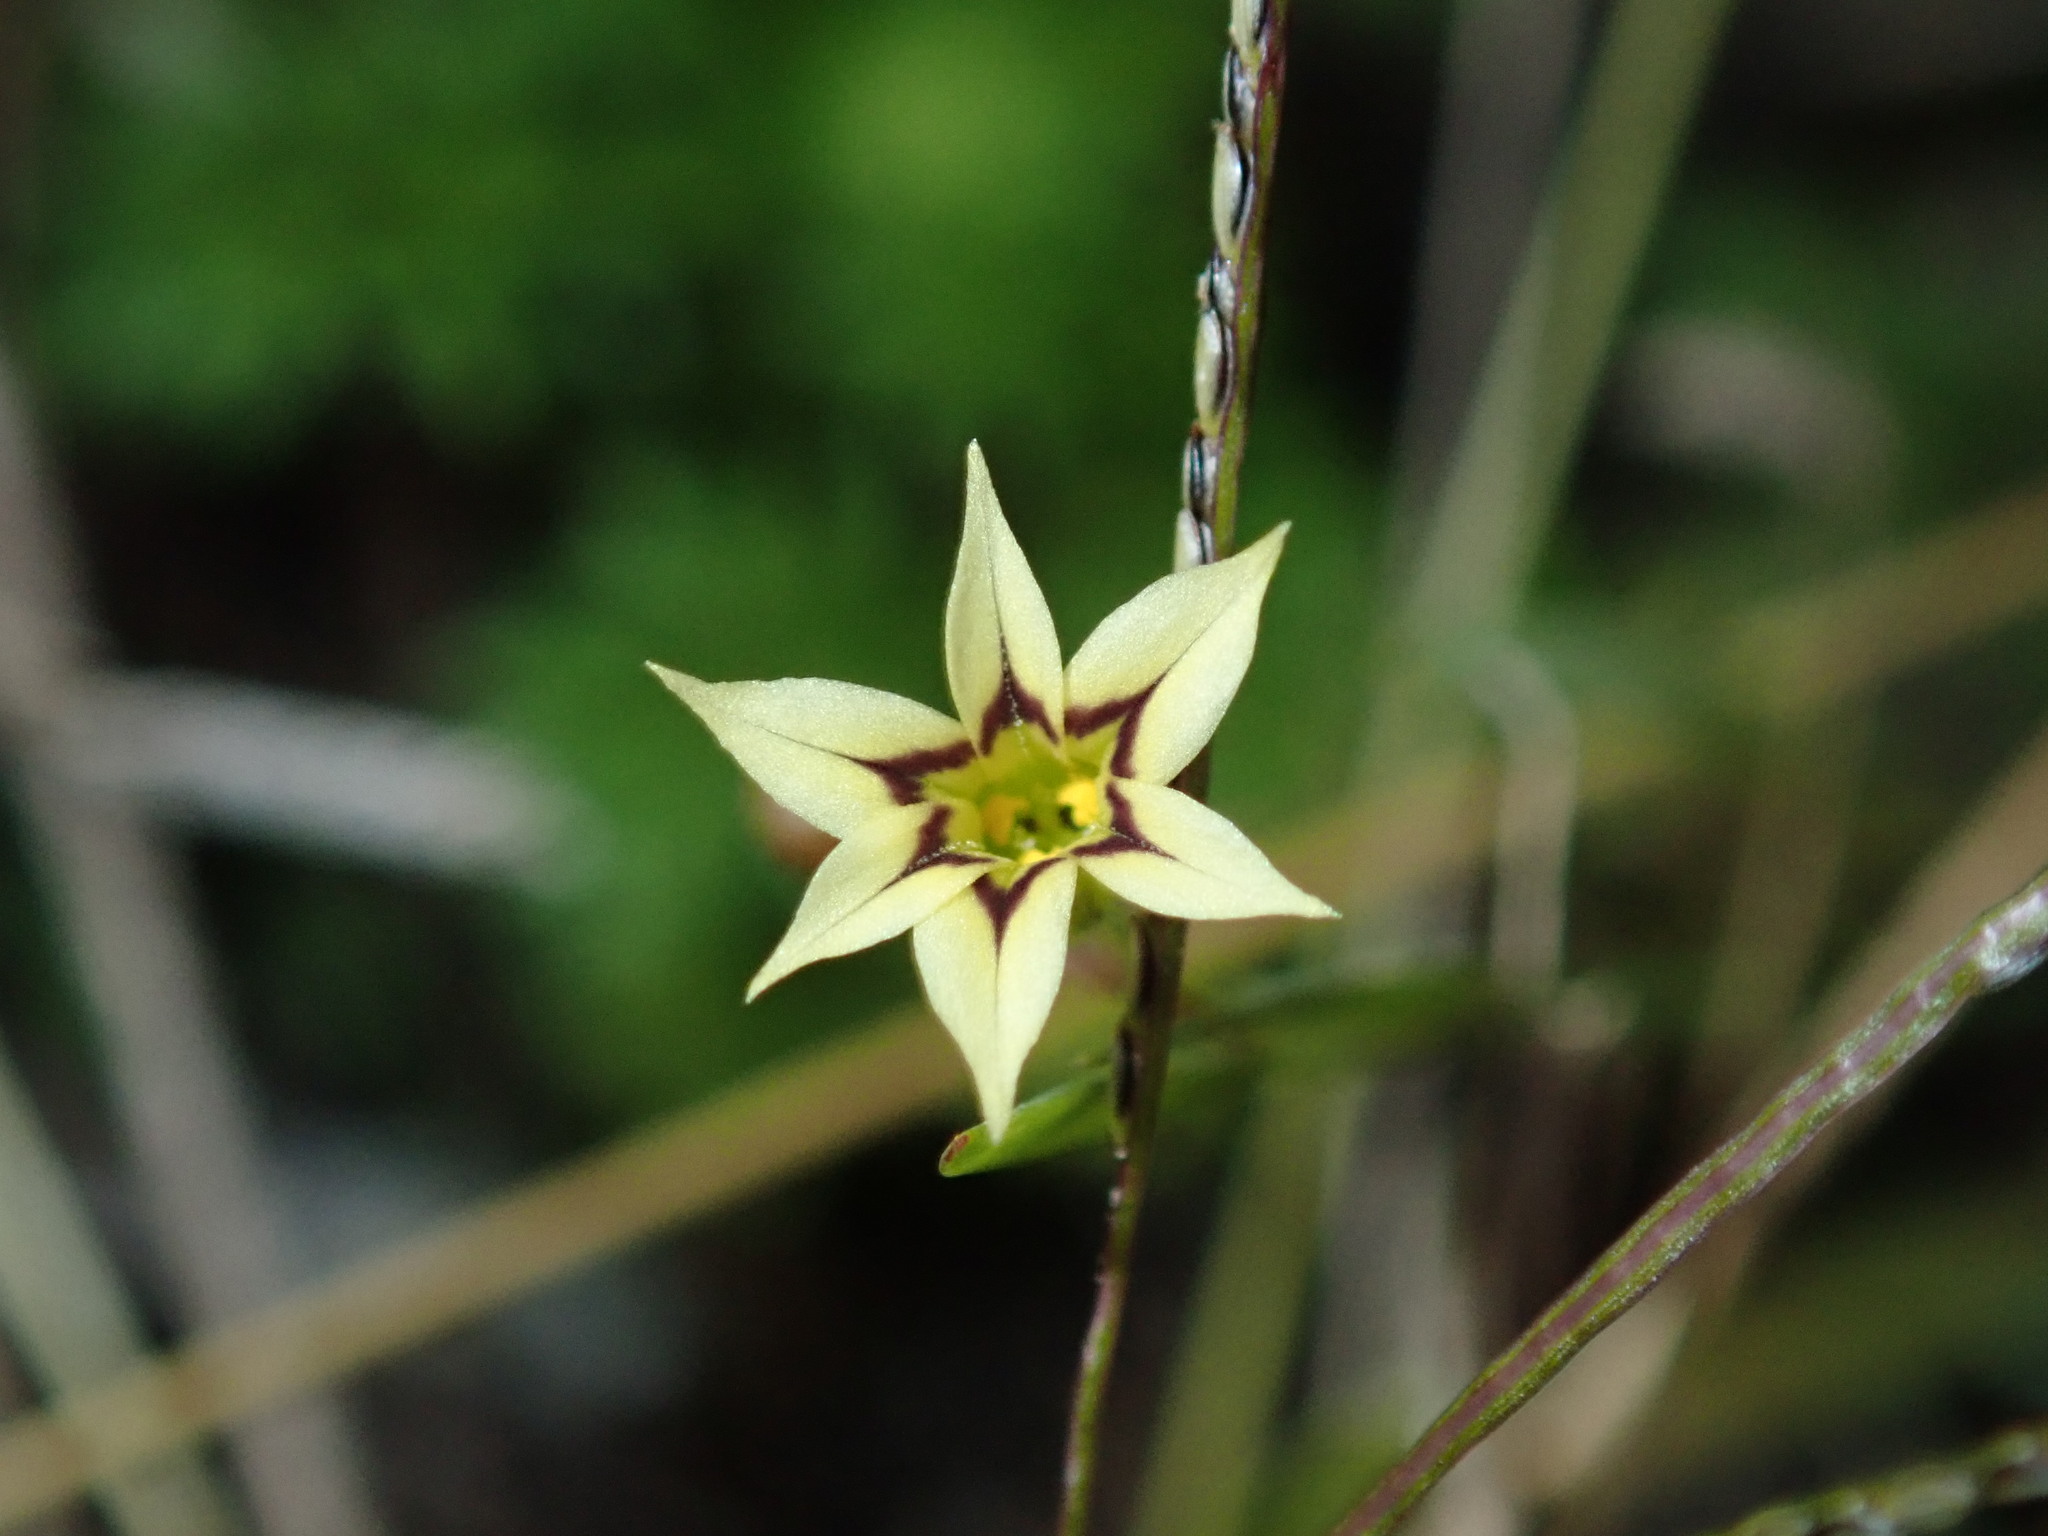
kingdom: Plantae
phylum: Tracheophyta
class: Liliopsida
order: Asparagales
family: Iridaceae
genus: Sisyrinchium
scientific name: Sisyrinchium micranthum
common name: Bermuda pigroot
